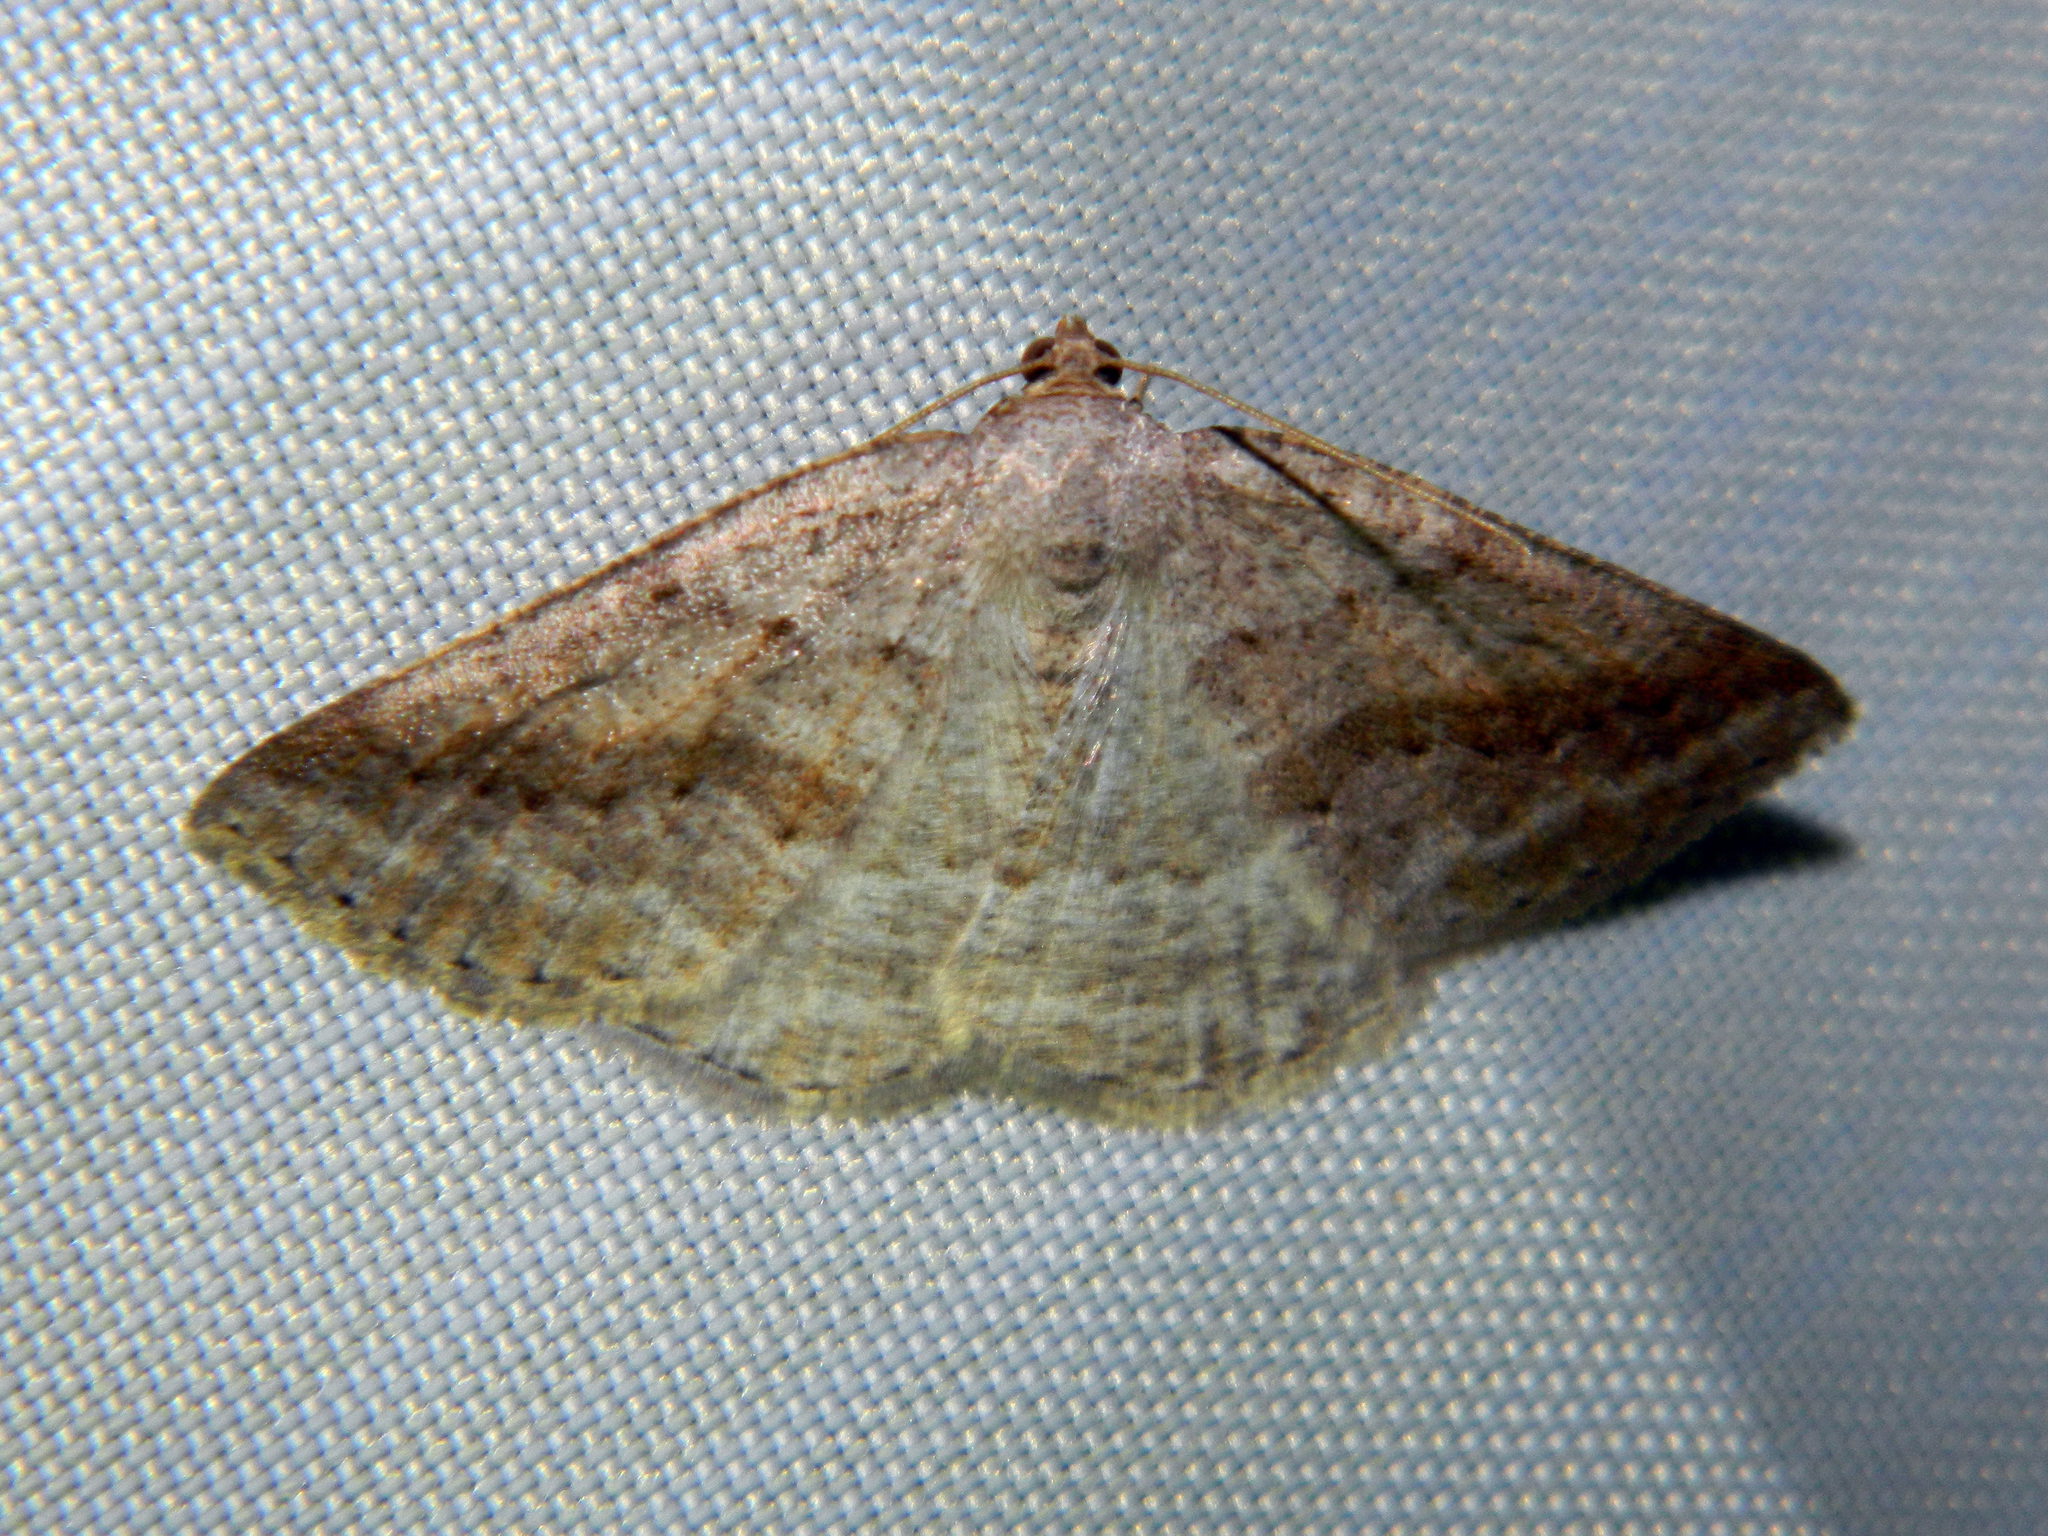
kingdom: Animalia
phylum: Arthropoda
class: Insecta
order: Lepidoptera
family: Geometridae
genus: Tacparia
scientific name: Tacparia detersata
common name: Pale alder moth
